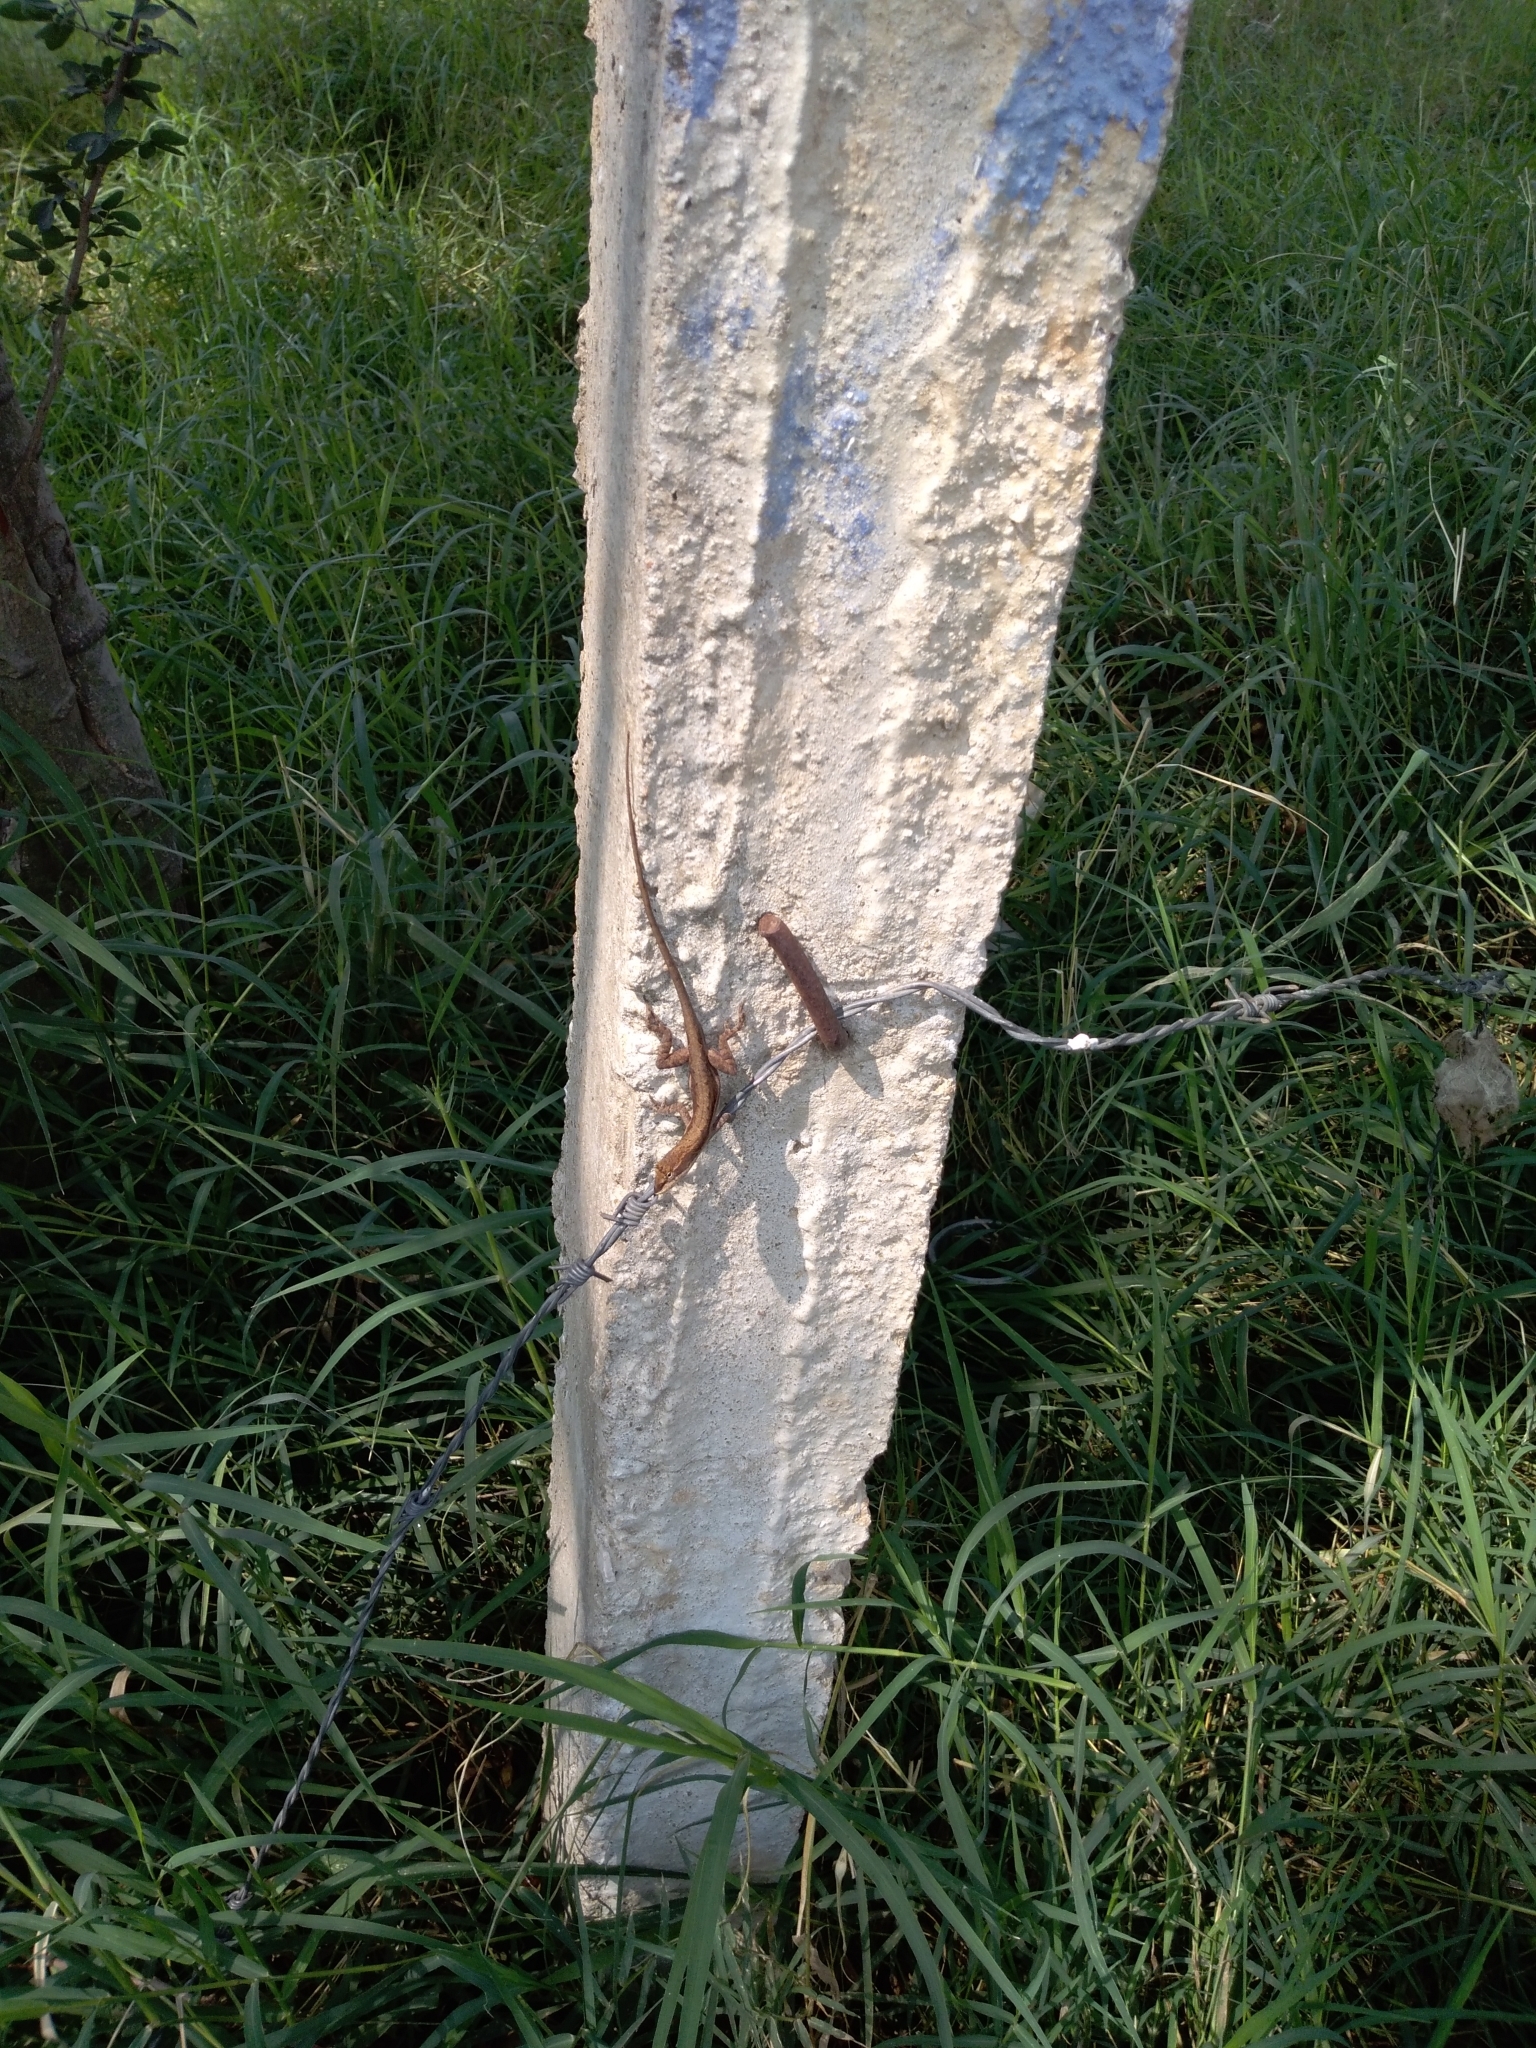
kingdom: Animalia
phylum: Chordata
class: Squamata
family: Dactyloidae
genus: Anolis
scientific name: Anolis quercorum
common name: Gray anole
